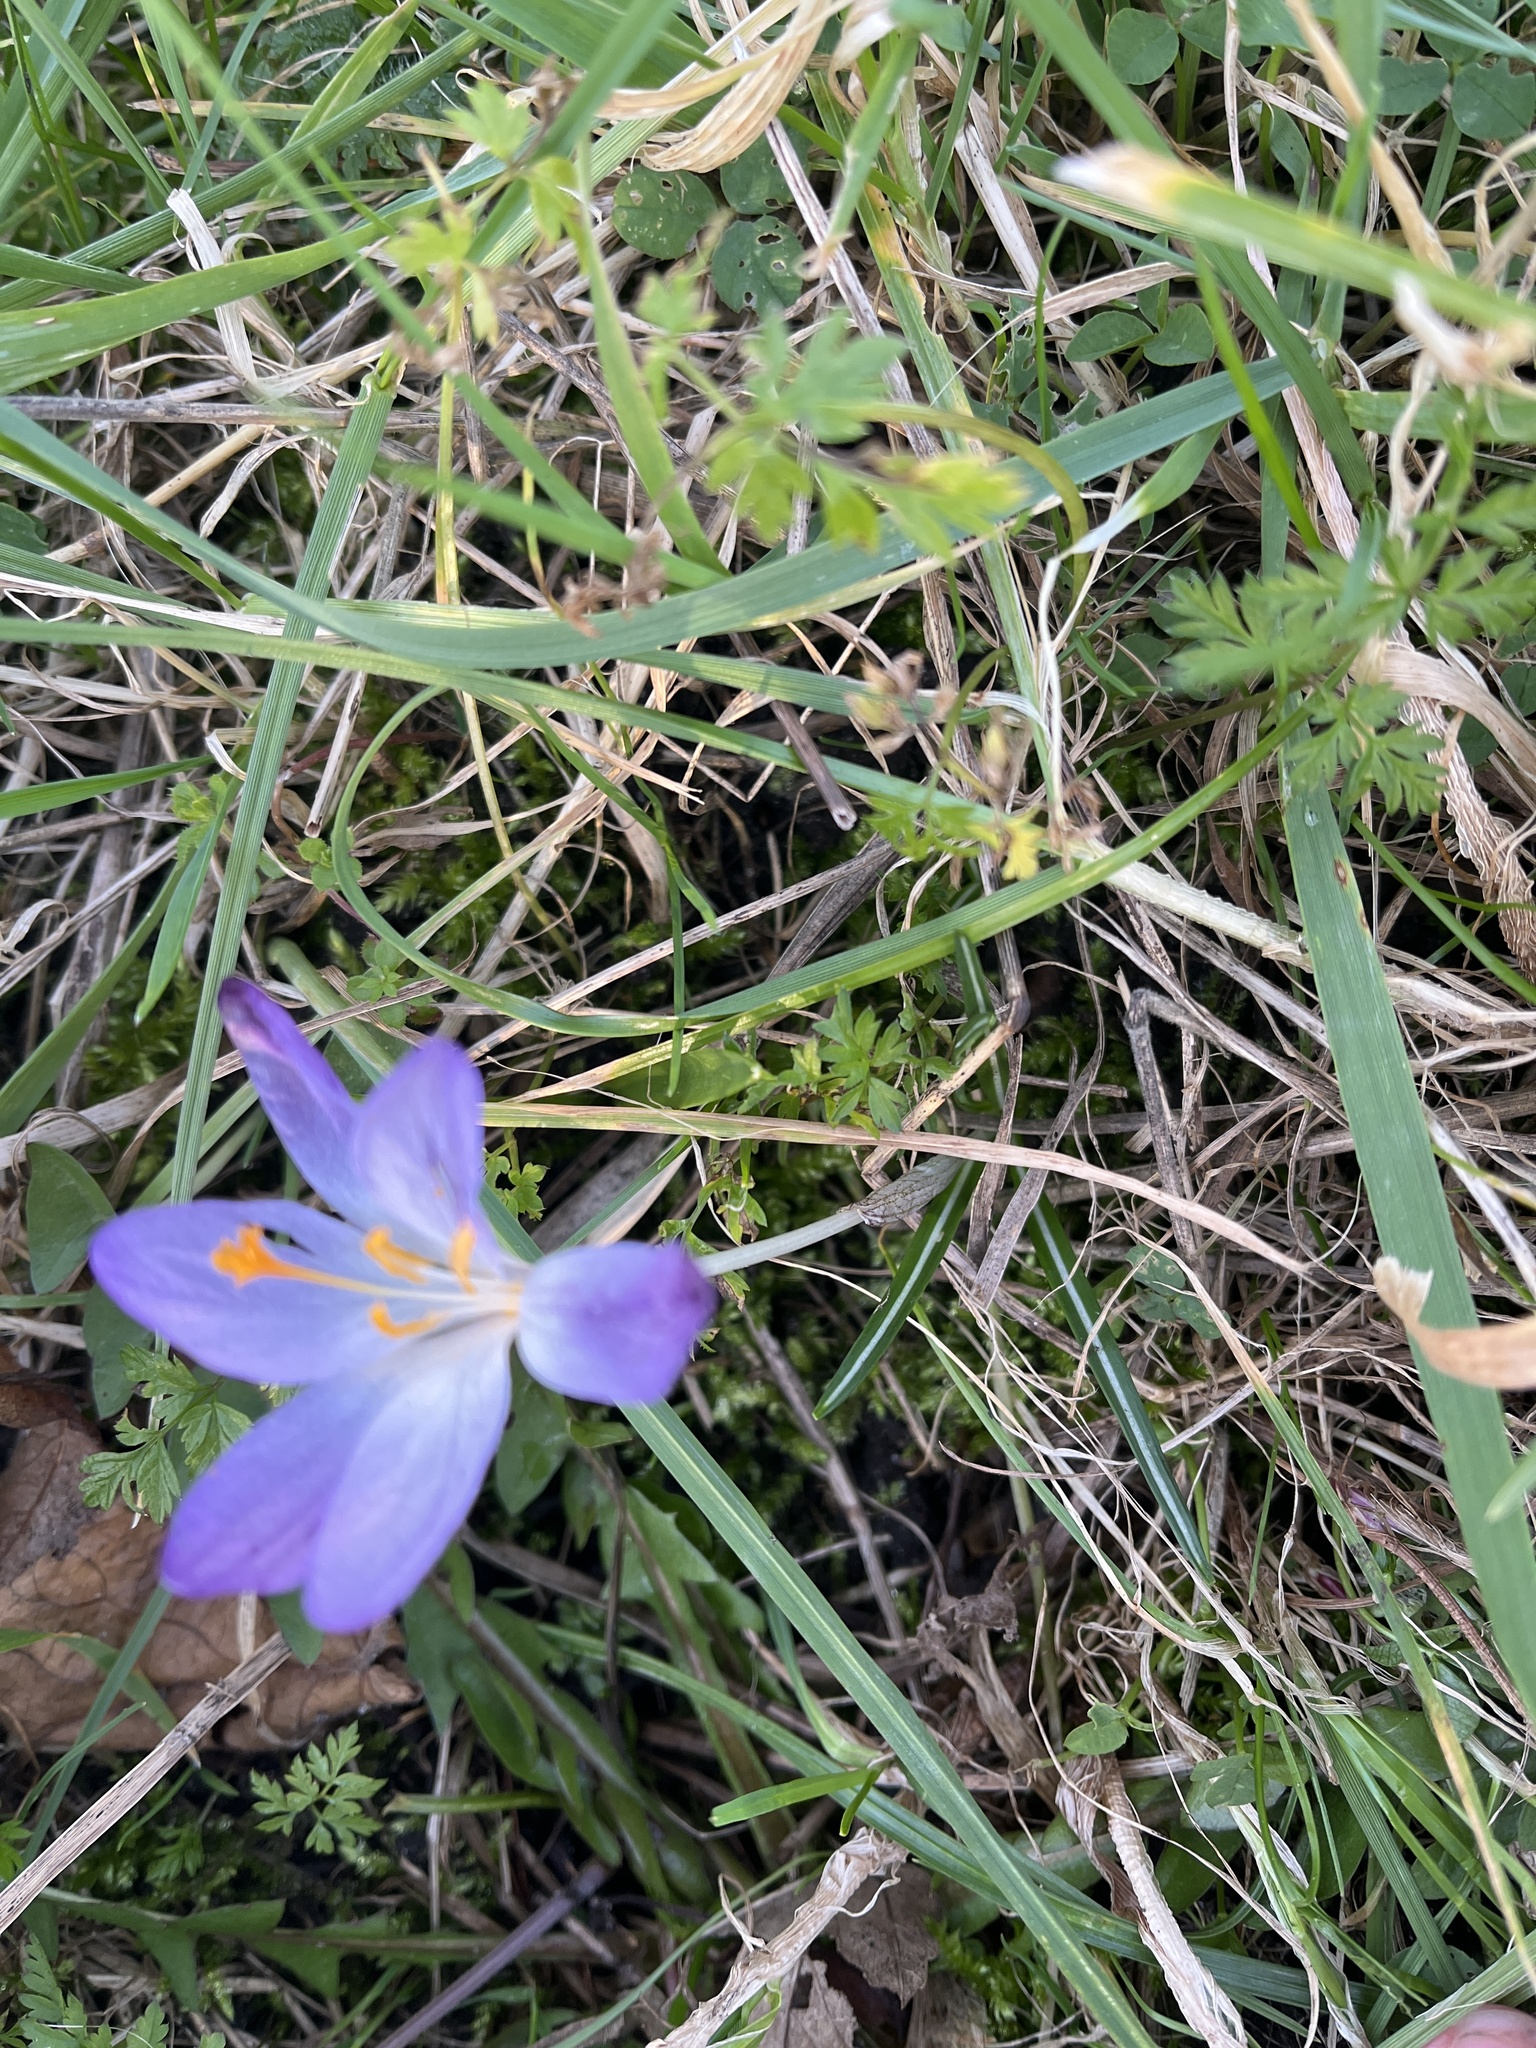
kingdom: Plantae
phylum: Tracheophyta
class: Liliopsida
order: Asparagales
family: Iridaceae
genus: Crocus
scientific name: Crocus tommasinianus
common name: Early crocus
